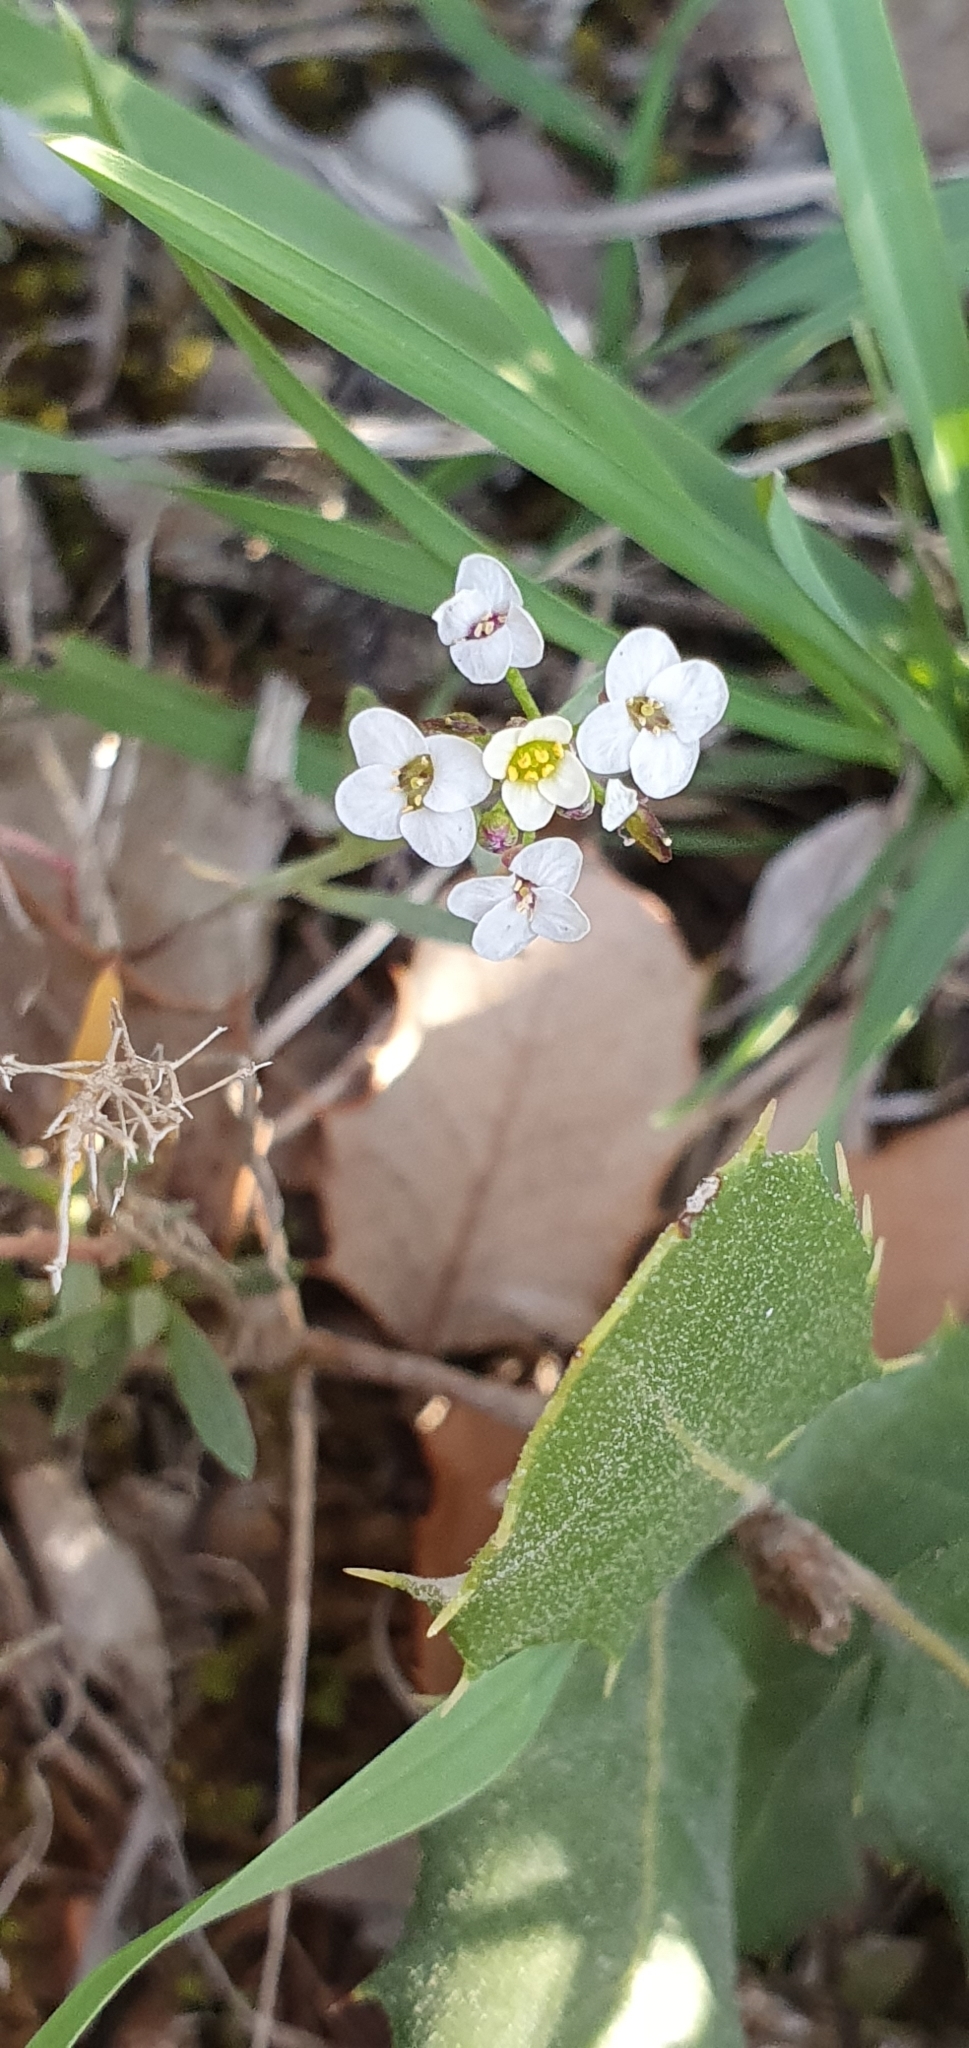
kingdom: Plantae
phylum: Tracheophyta
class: Magnoliopsida
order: Brassicales
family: Brassicaceae
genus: Lobularia
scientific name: Lobularia maritima
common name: Sweet alison
